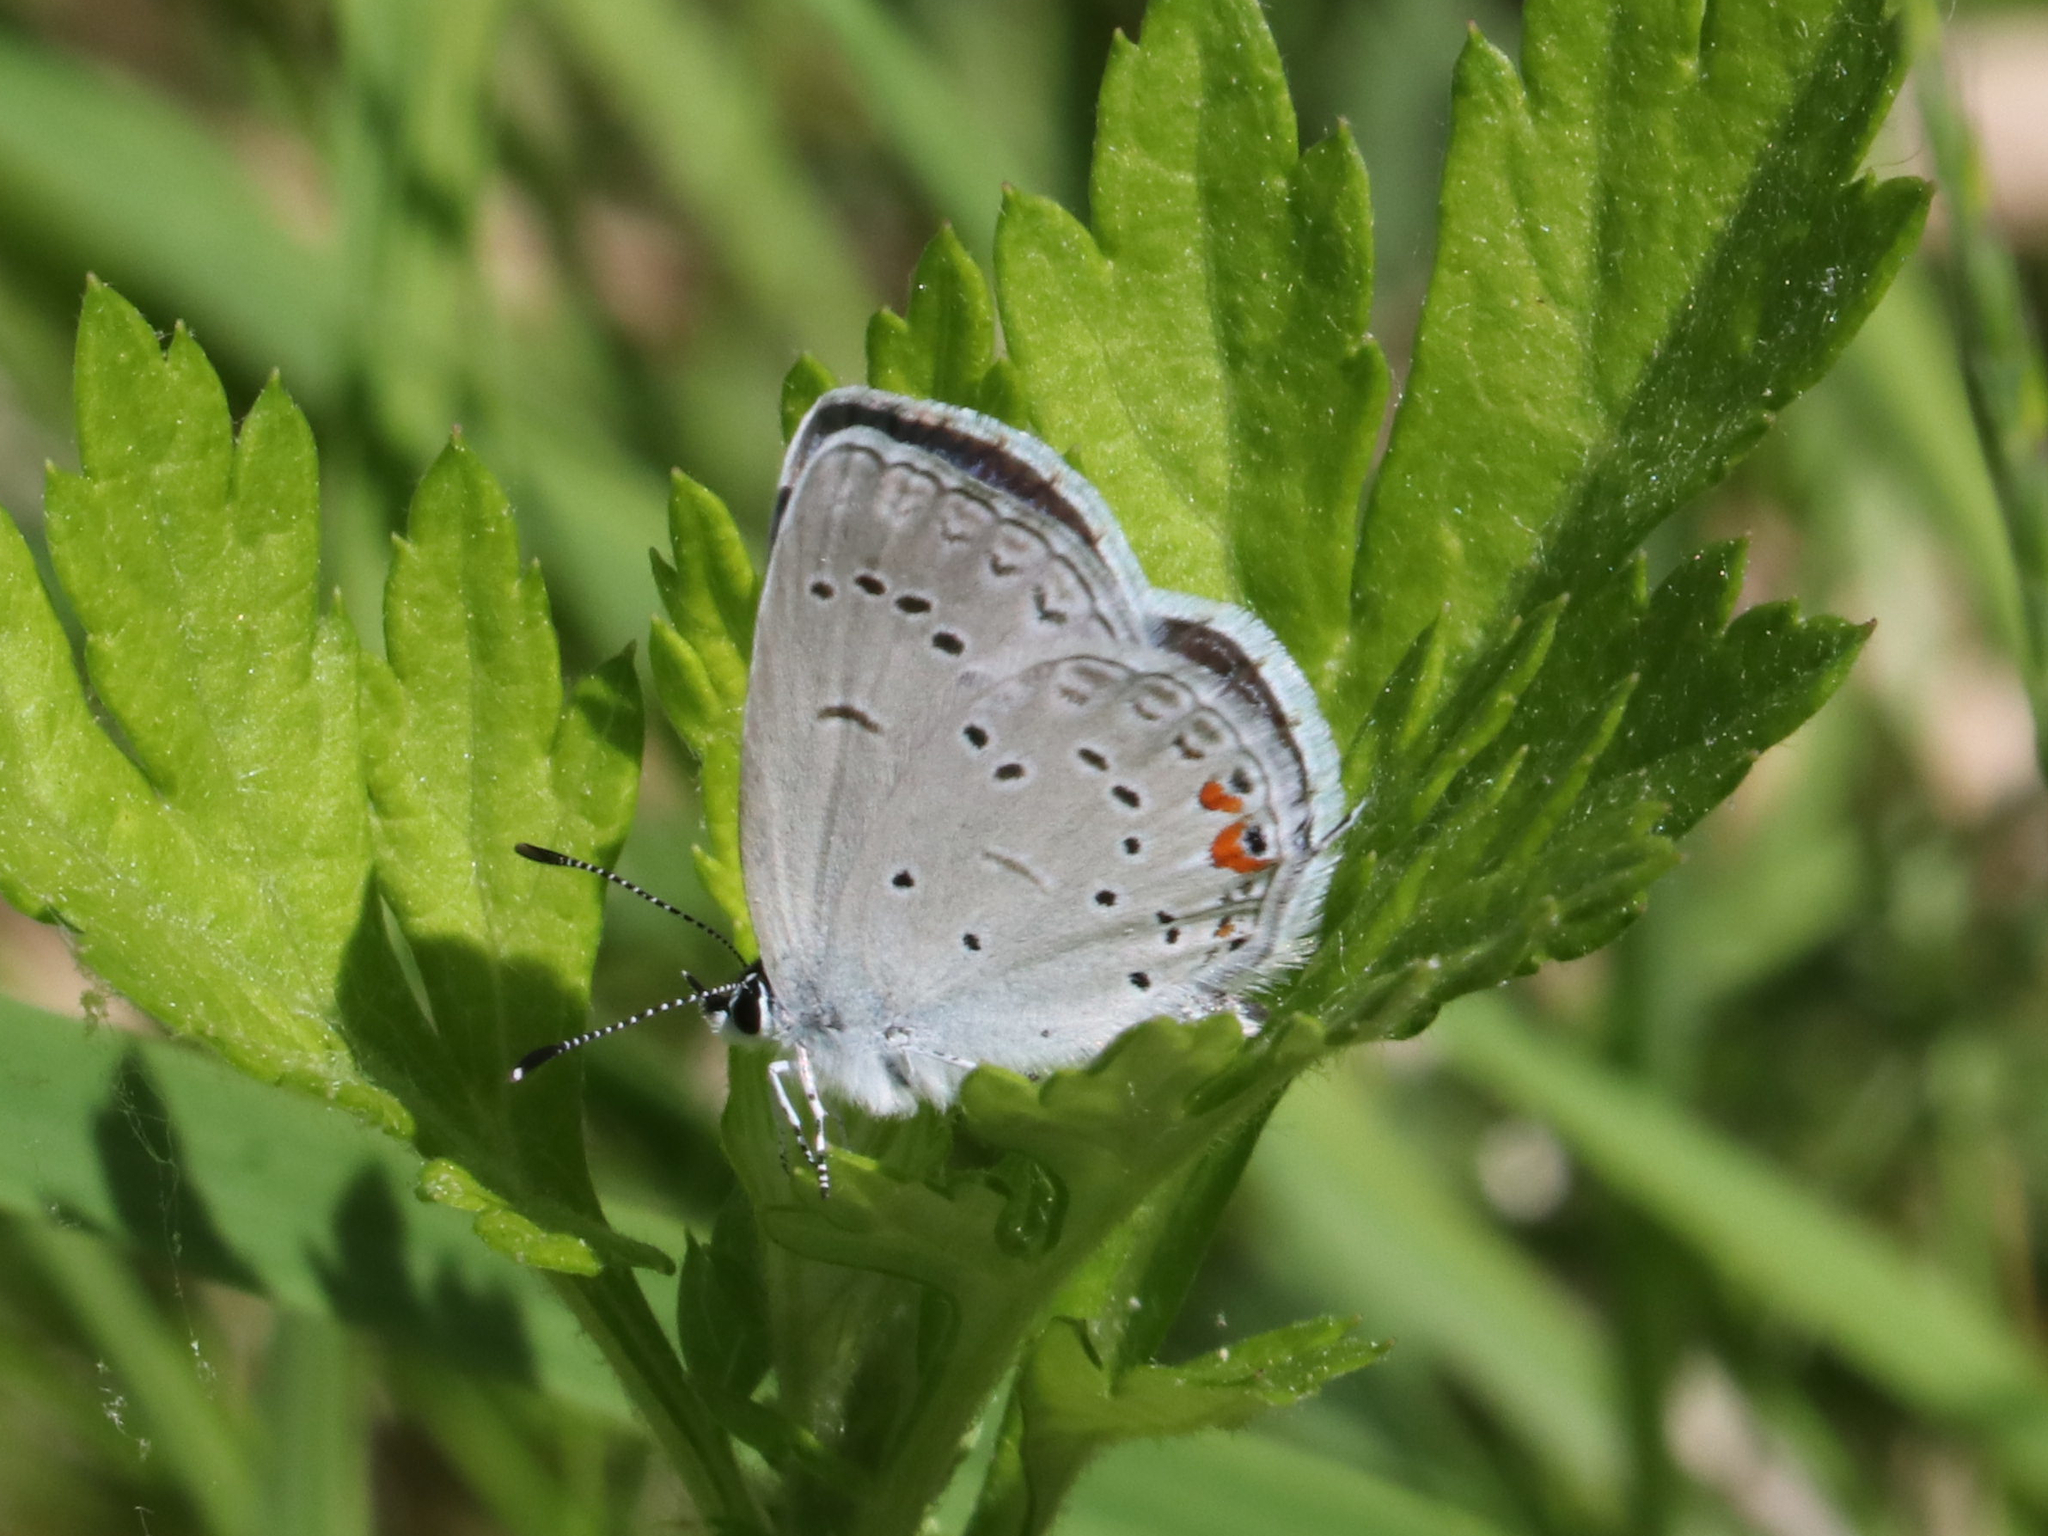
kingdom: Animalia
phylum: Arthropoda
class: Insecta
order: Lepidoptera
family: Lycaenidae
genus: Elkalyce
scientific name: Elkalyce comyntas
